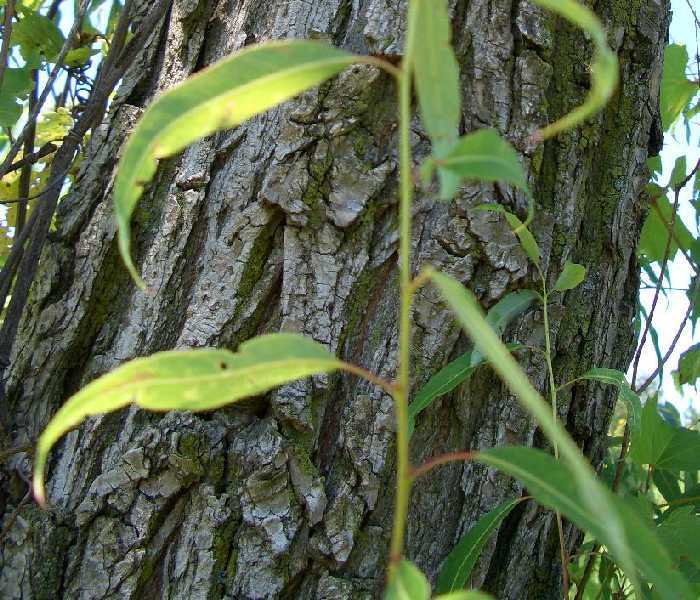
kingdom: Plantae
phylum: Tracheophyta
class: Magnoliopsida
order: Malpighiales
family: Salicaceae
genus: Salix
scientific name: Salix amygdaloides
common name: Peach leaf willow
